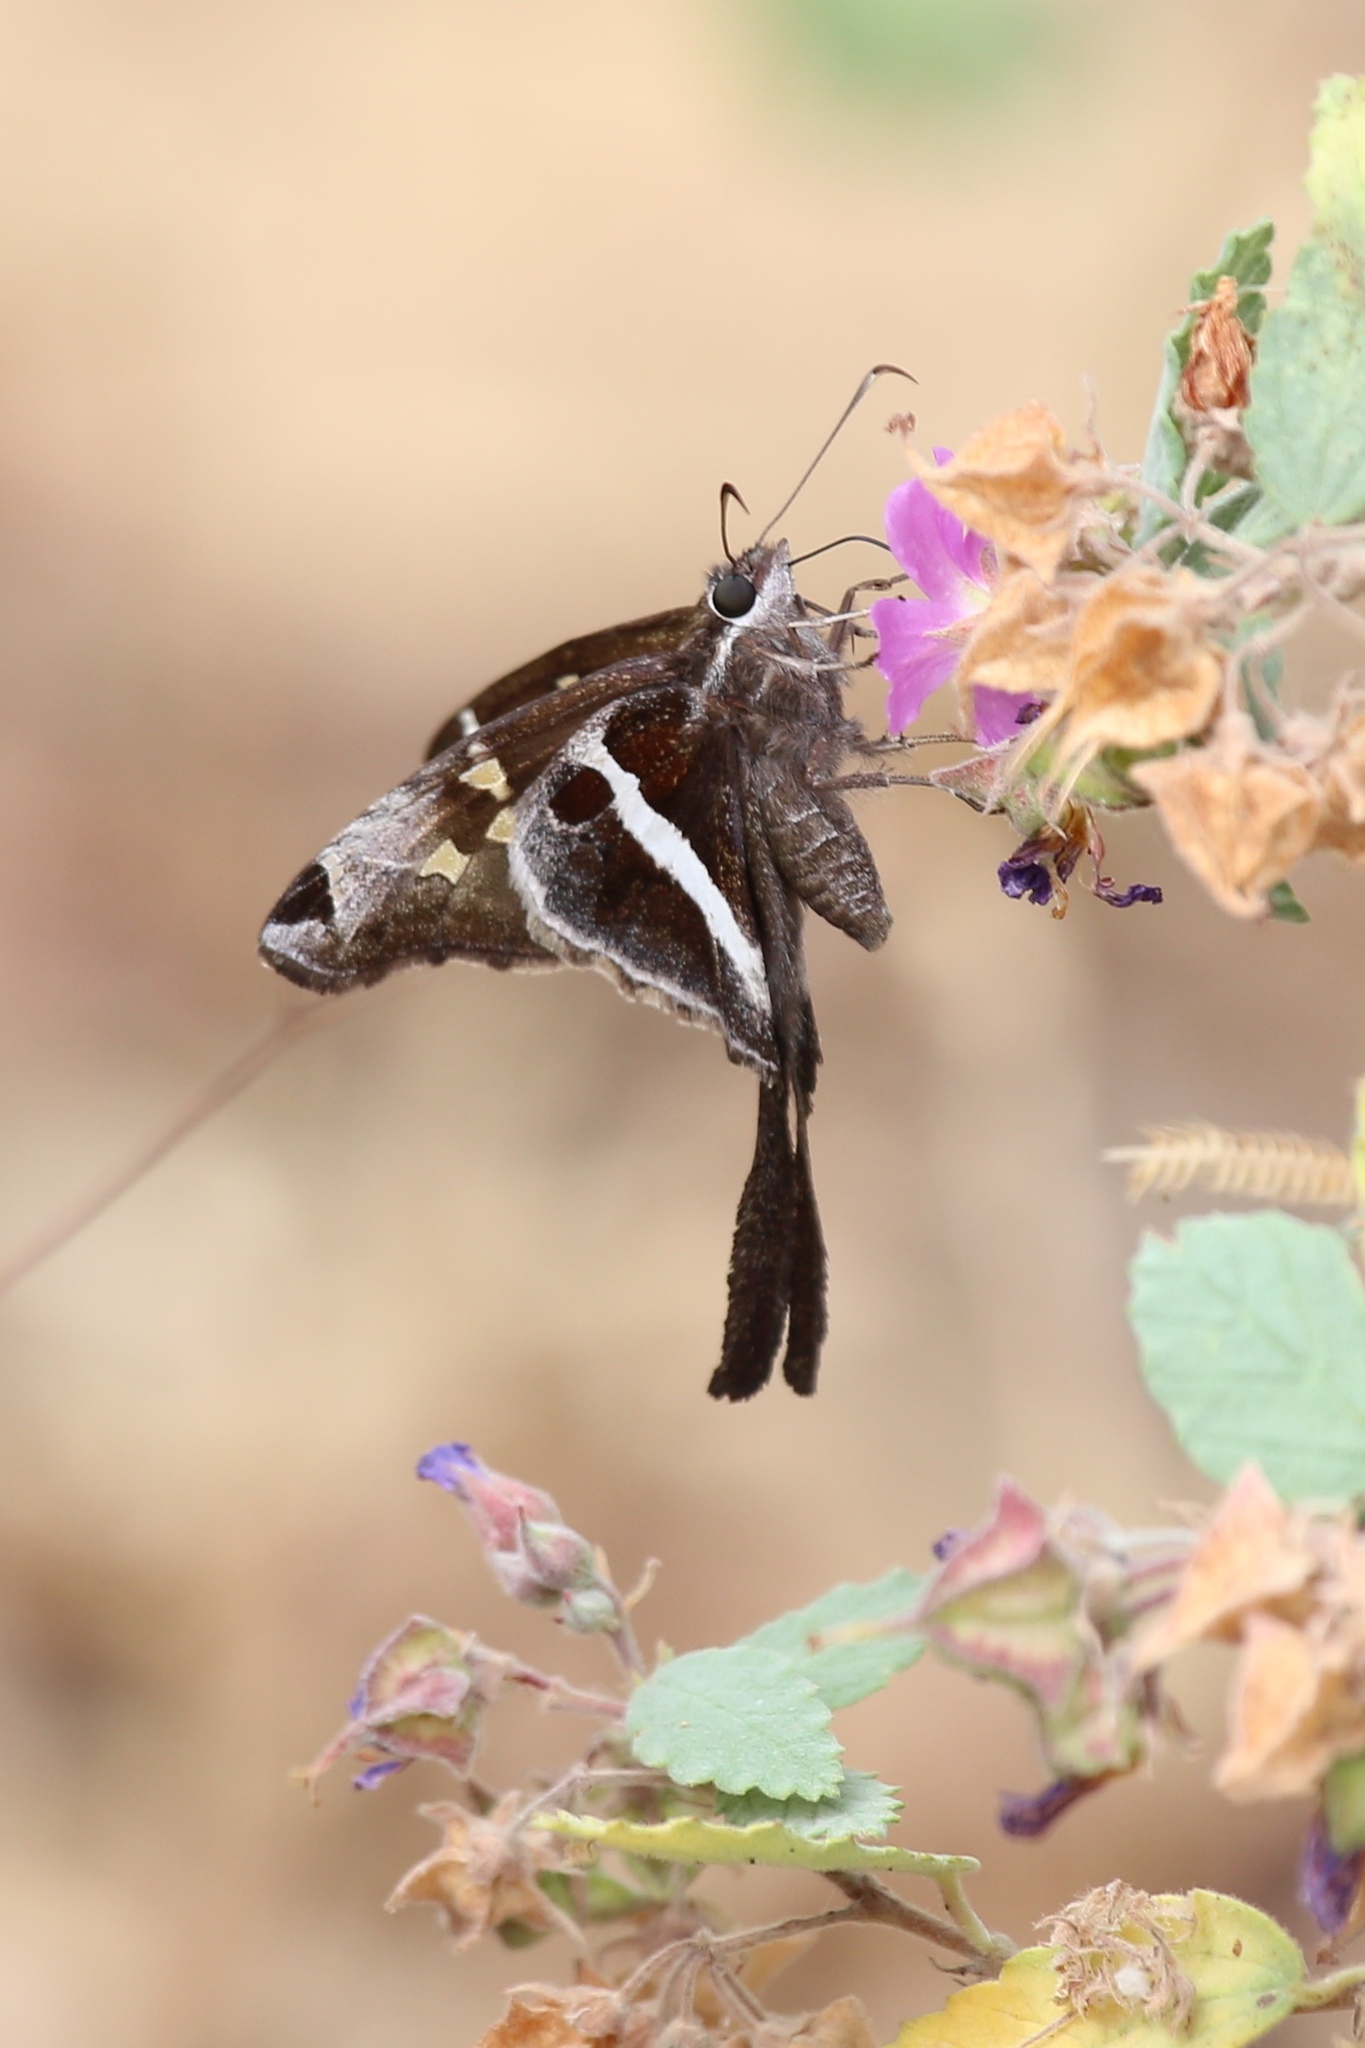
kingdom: Animalia
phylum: Arthropoda
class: Insecta
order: Lepidoptera
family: Hesperiidae
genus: Chioides
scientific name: Chioides catillus
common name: Silverbanded skipper
